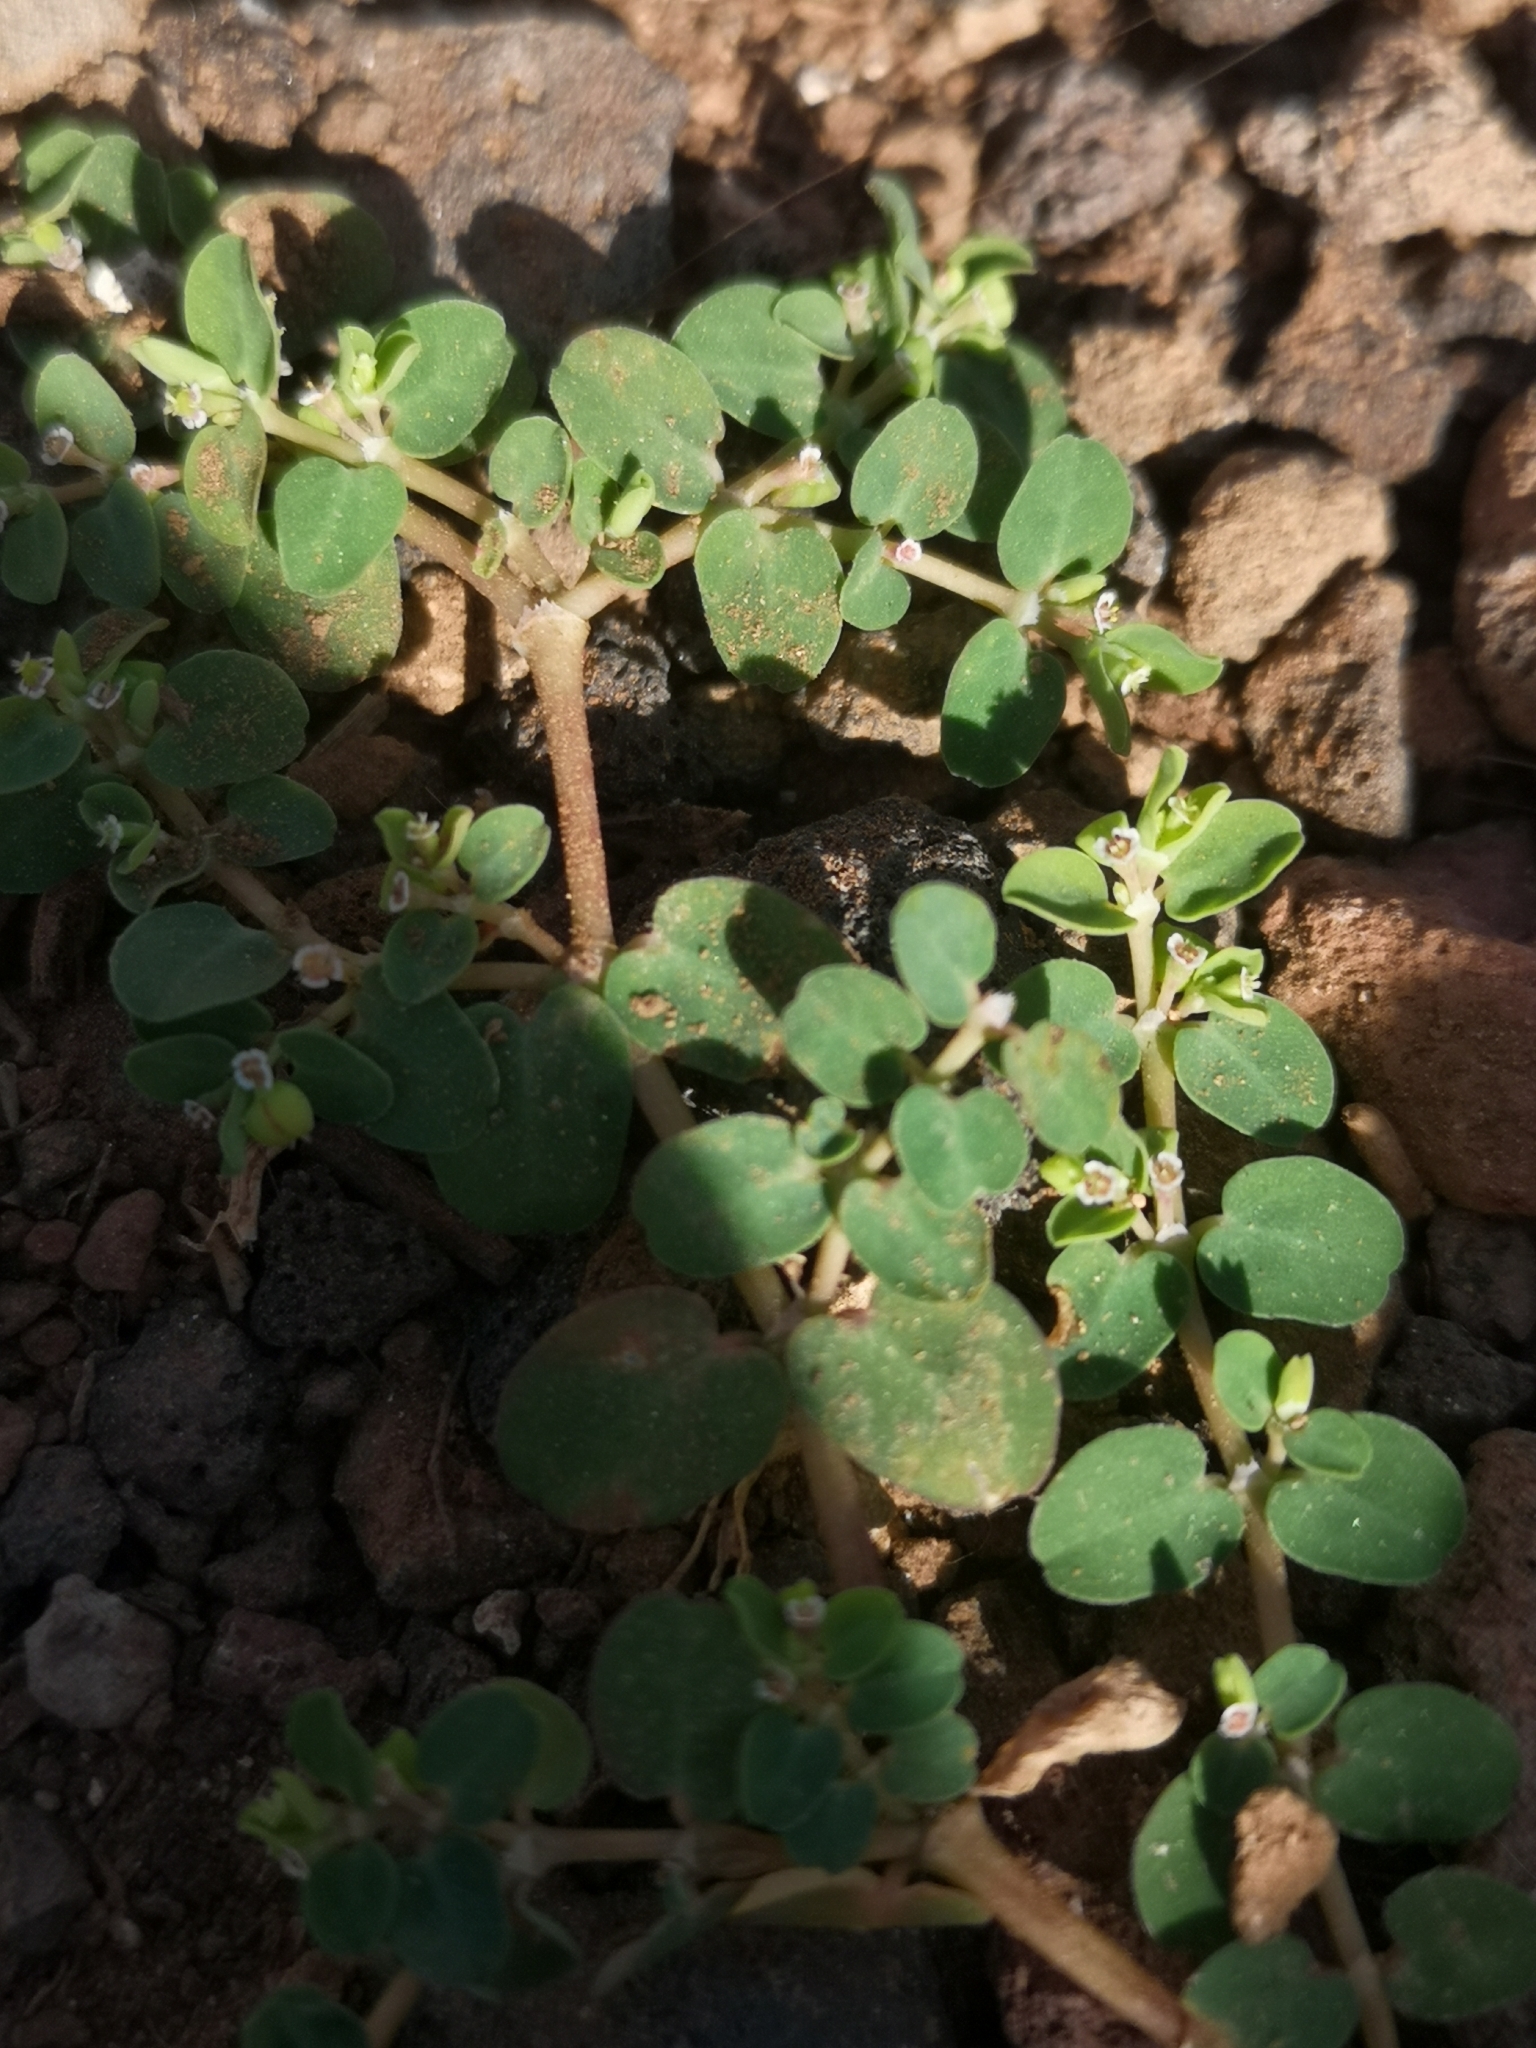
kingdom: Plantae
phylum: Tracheophyta
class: Magnoliopsida
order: Malpighiales
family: Euphorbiaceae
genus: Euphorbia
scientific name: Euphorbia serpens
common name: Matted sandmat
